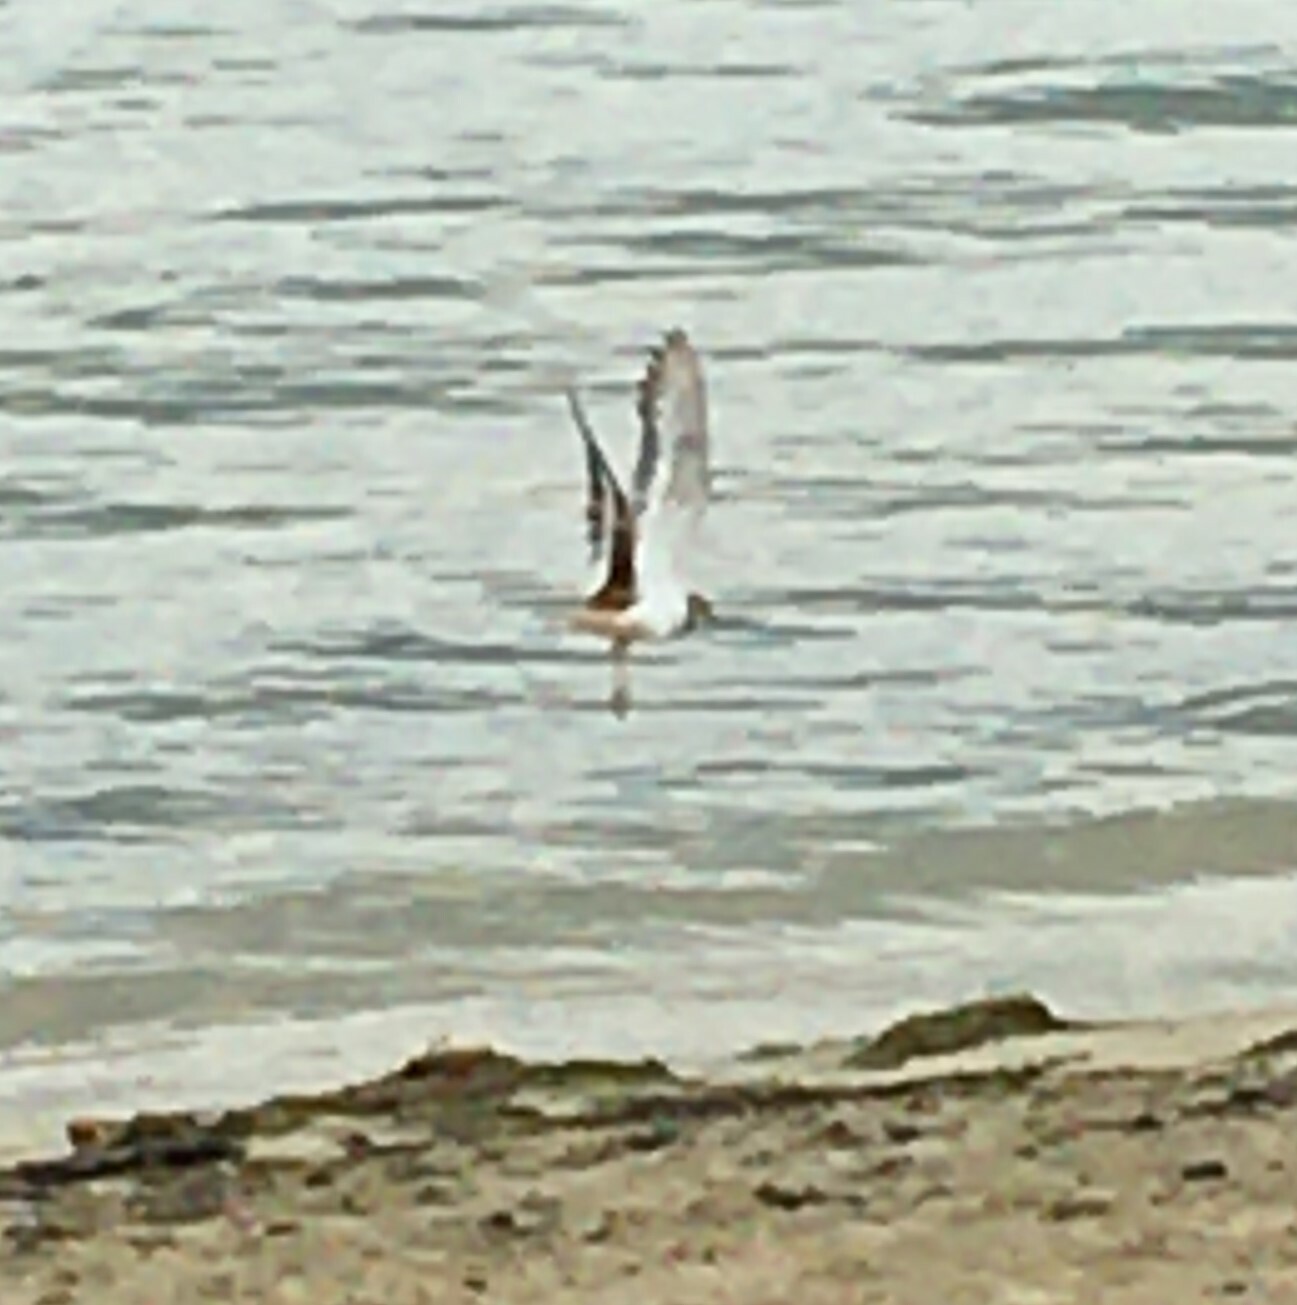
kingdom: Animalia
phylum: Chordata
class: Aves
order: Charadriiformes
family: Charadriidae
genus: Charadrius
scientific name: Charadrius vociferus
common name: Killdeer
